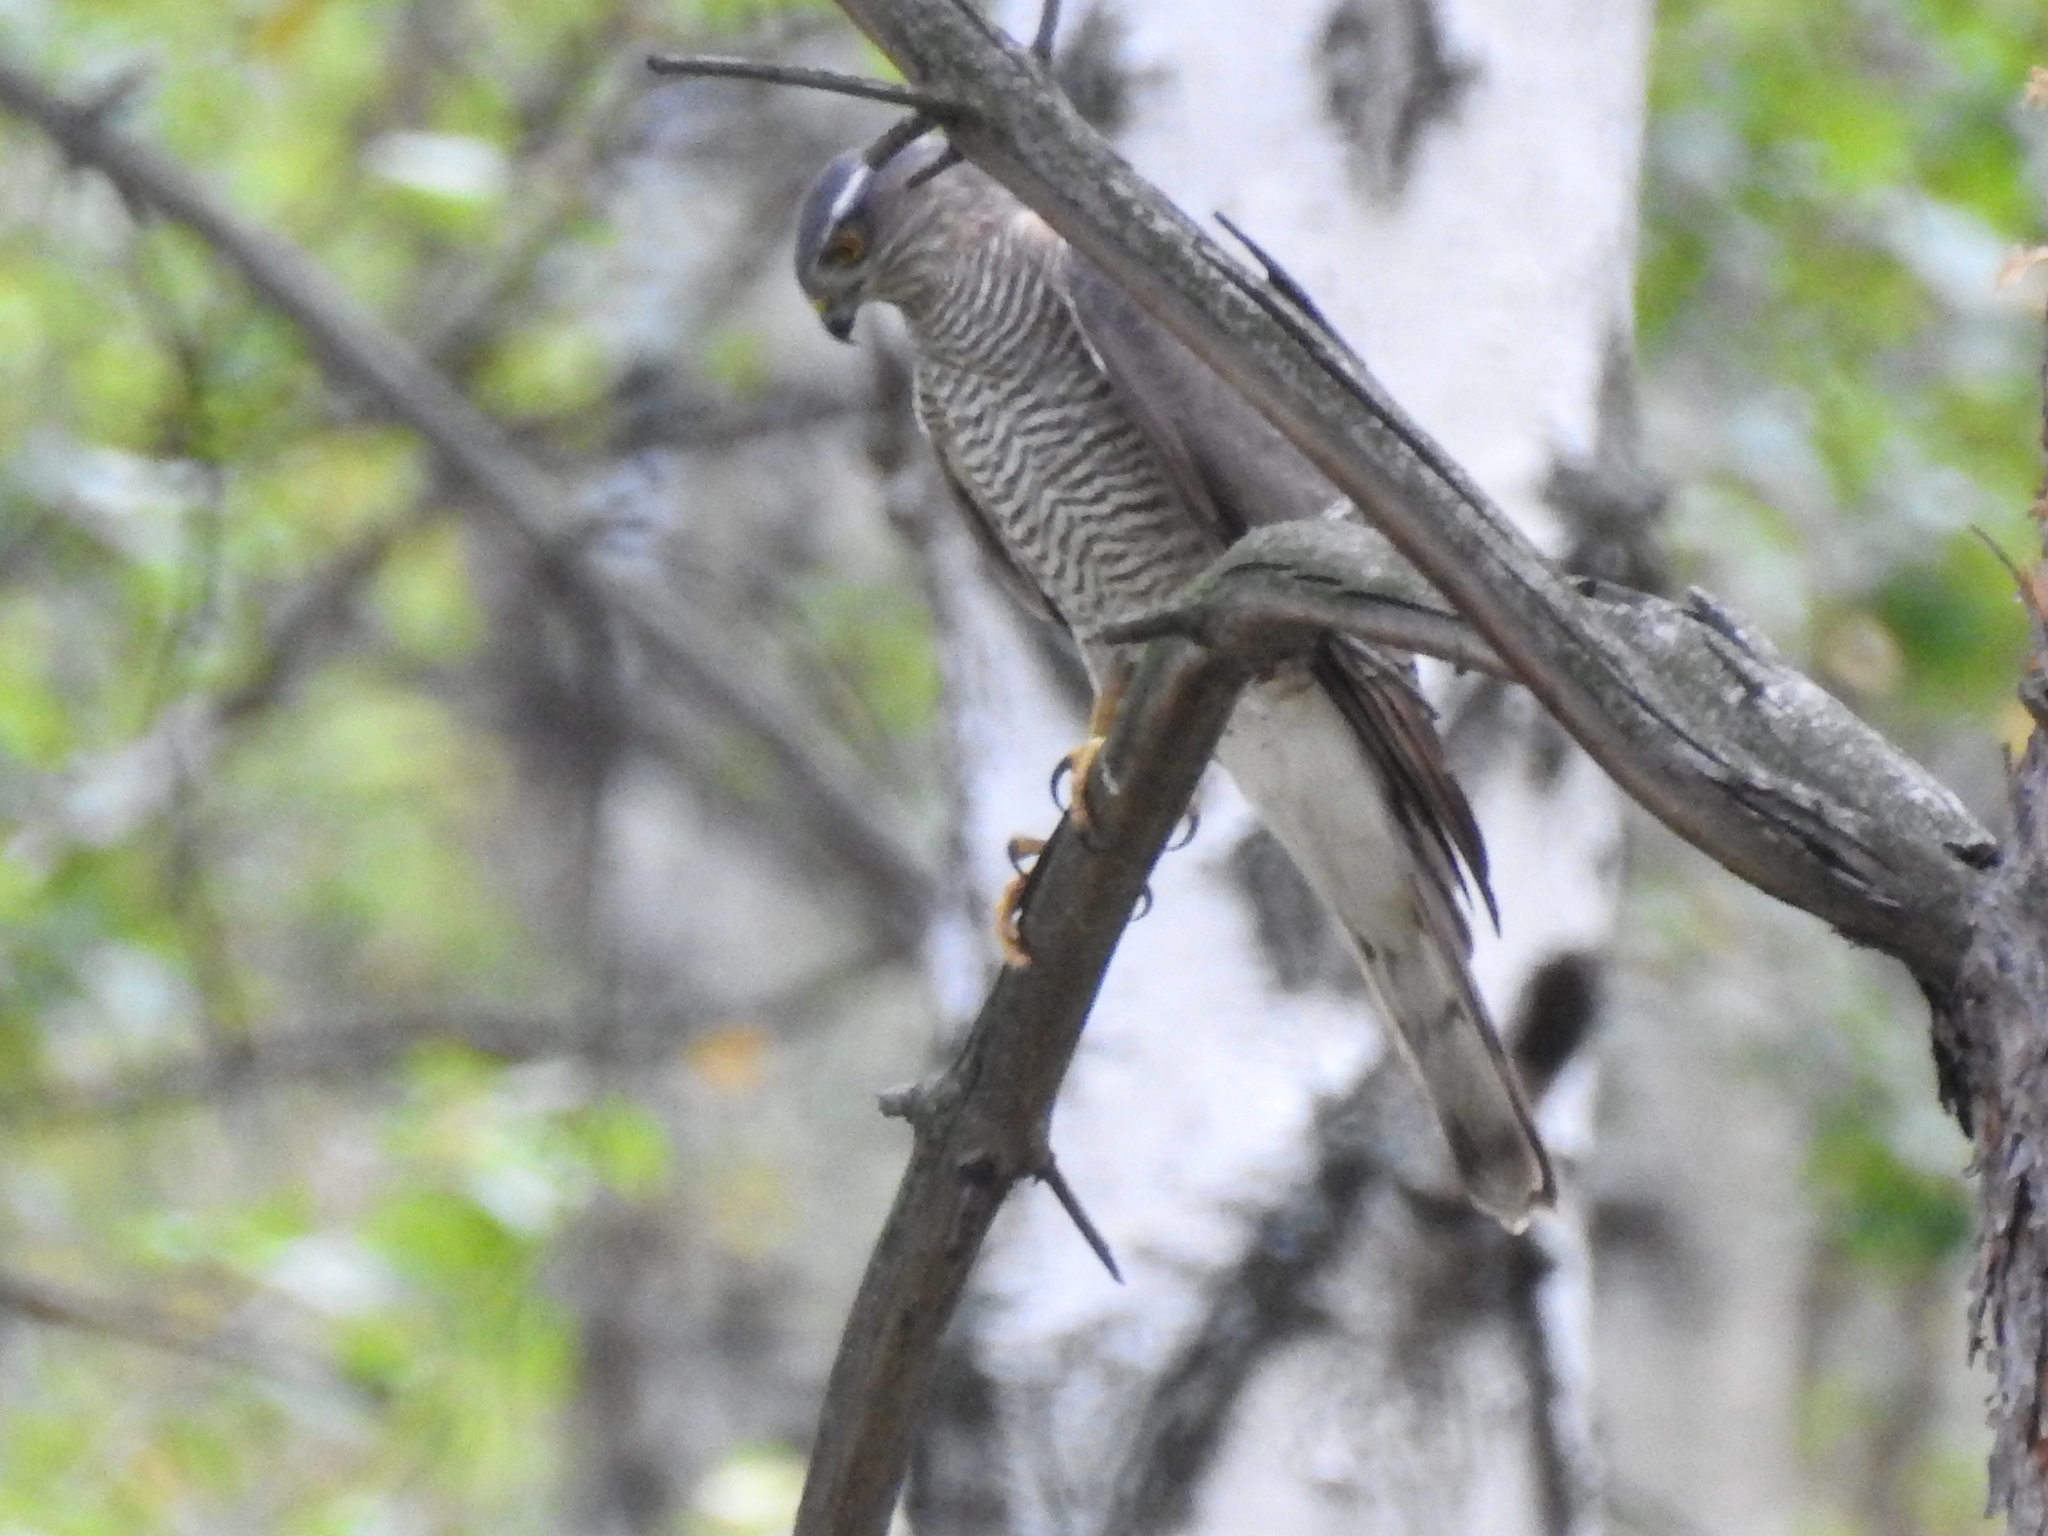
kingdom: Animalia
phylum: Chordata
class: Aves
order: Accipitriformes
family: Accipitridae
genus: Accipiter
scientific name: Accipiter nisus
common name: Eurasian sparrowhawk
